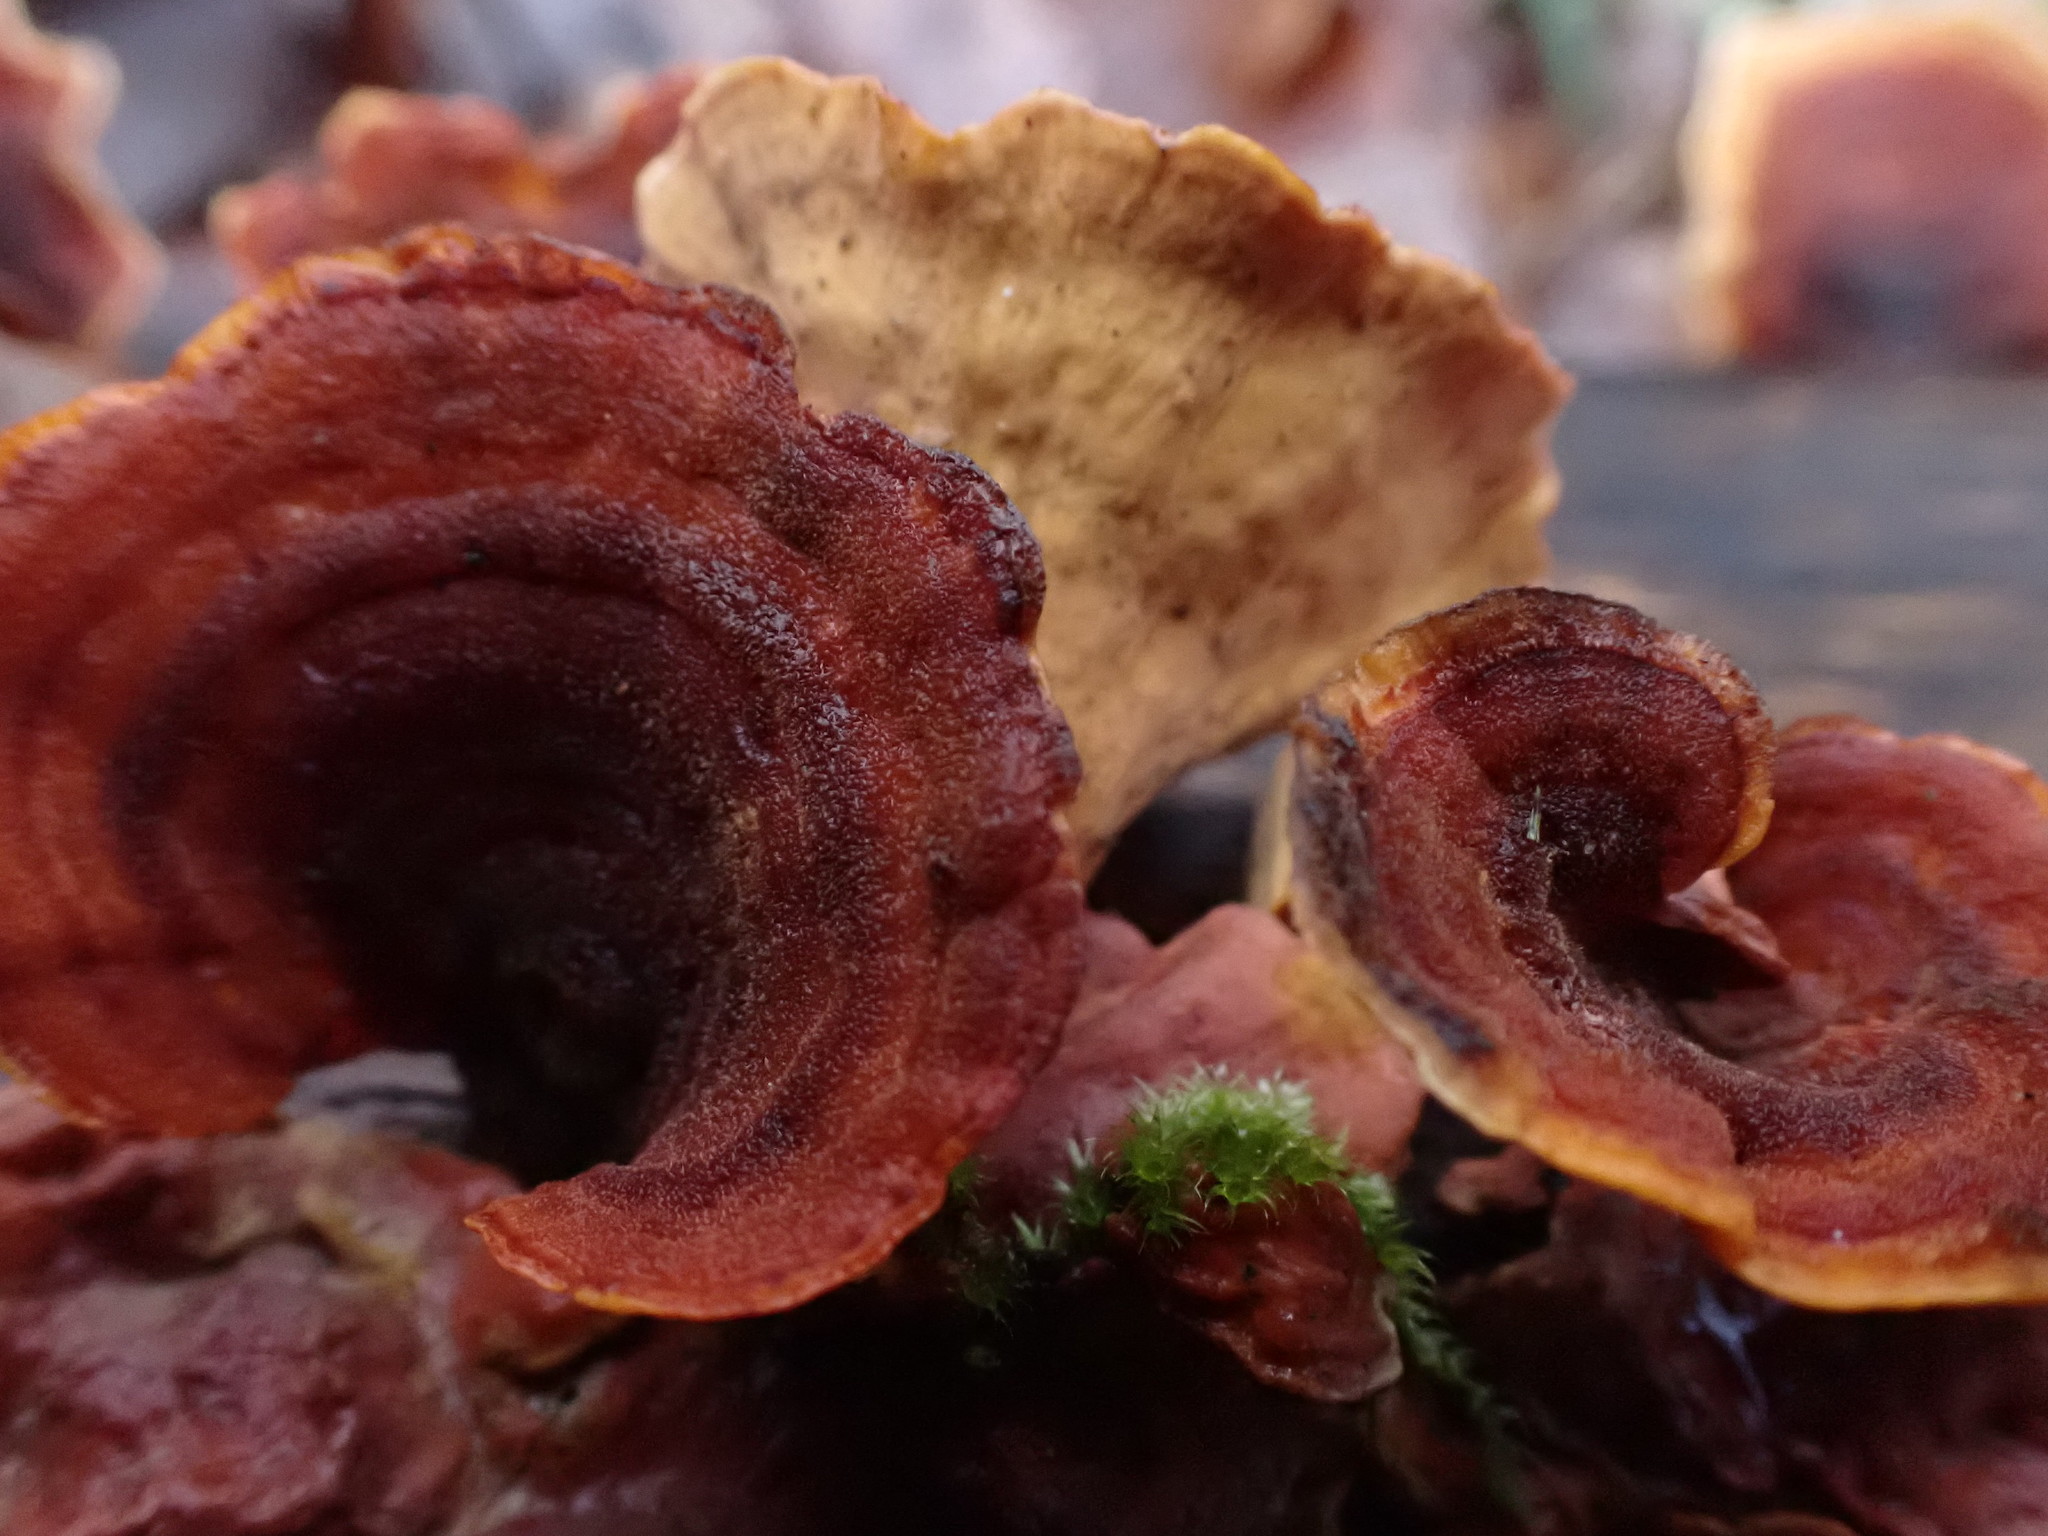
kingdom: Fungi
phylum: Basidiomycota
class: Agaricomycetes
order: Russulales
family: Stereaceae
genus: Stereum
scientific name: Stereum subtomentosum
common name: Yellowing curtain crust
